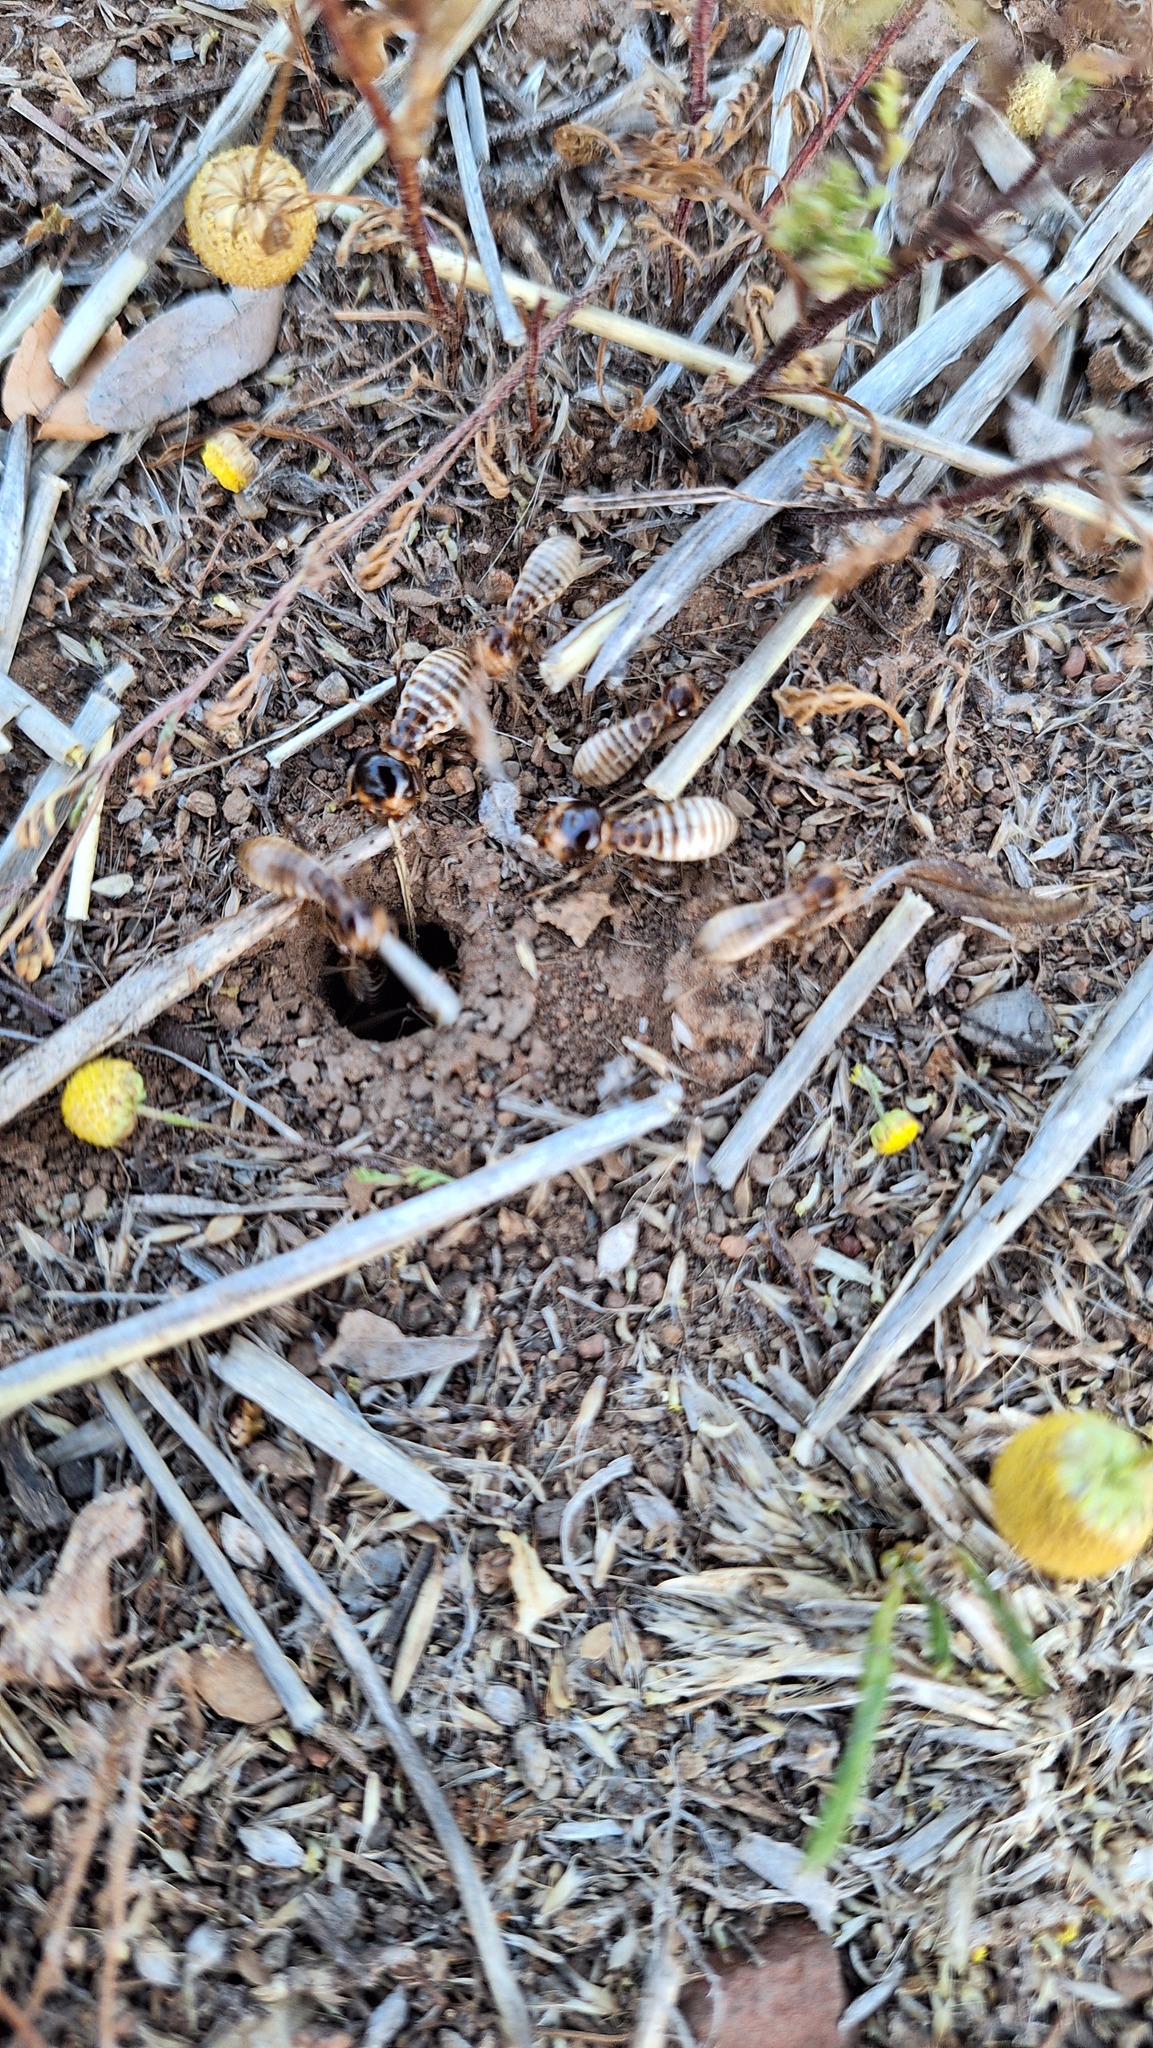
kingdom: Animalia
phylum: Arthropoda
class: Insecta
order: Blattodea
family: Hodotermitidae
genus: Hodotermes
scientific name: Hodotermes mossambicus
